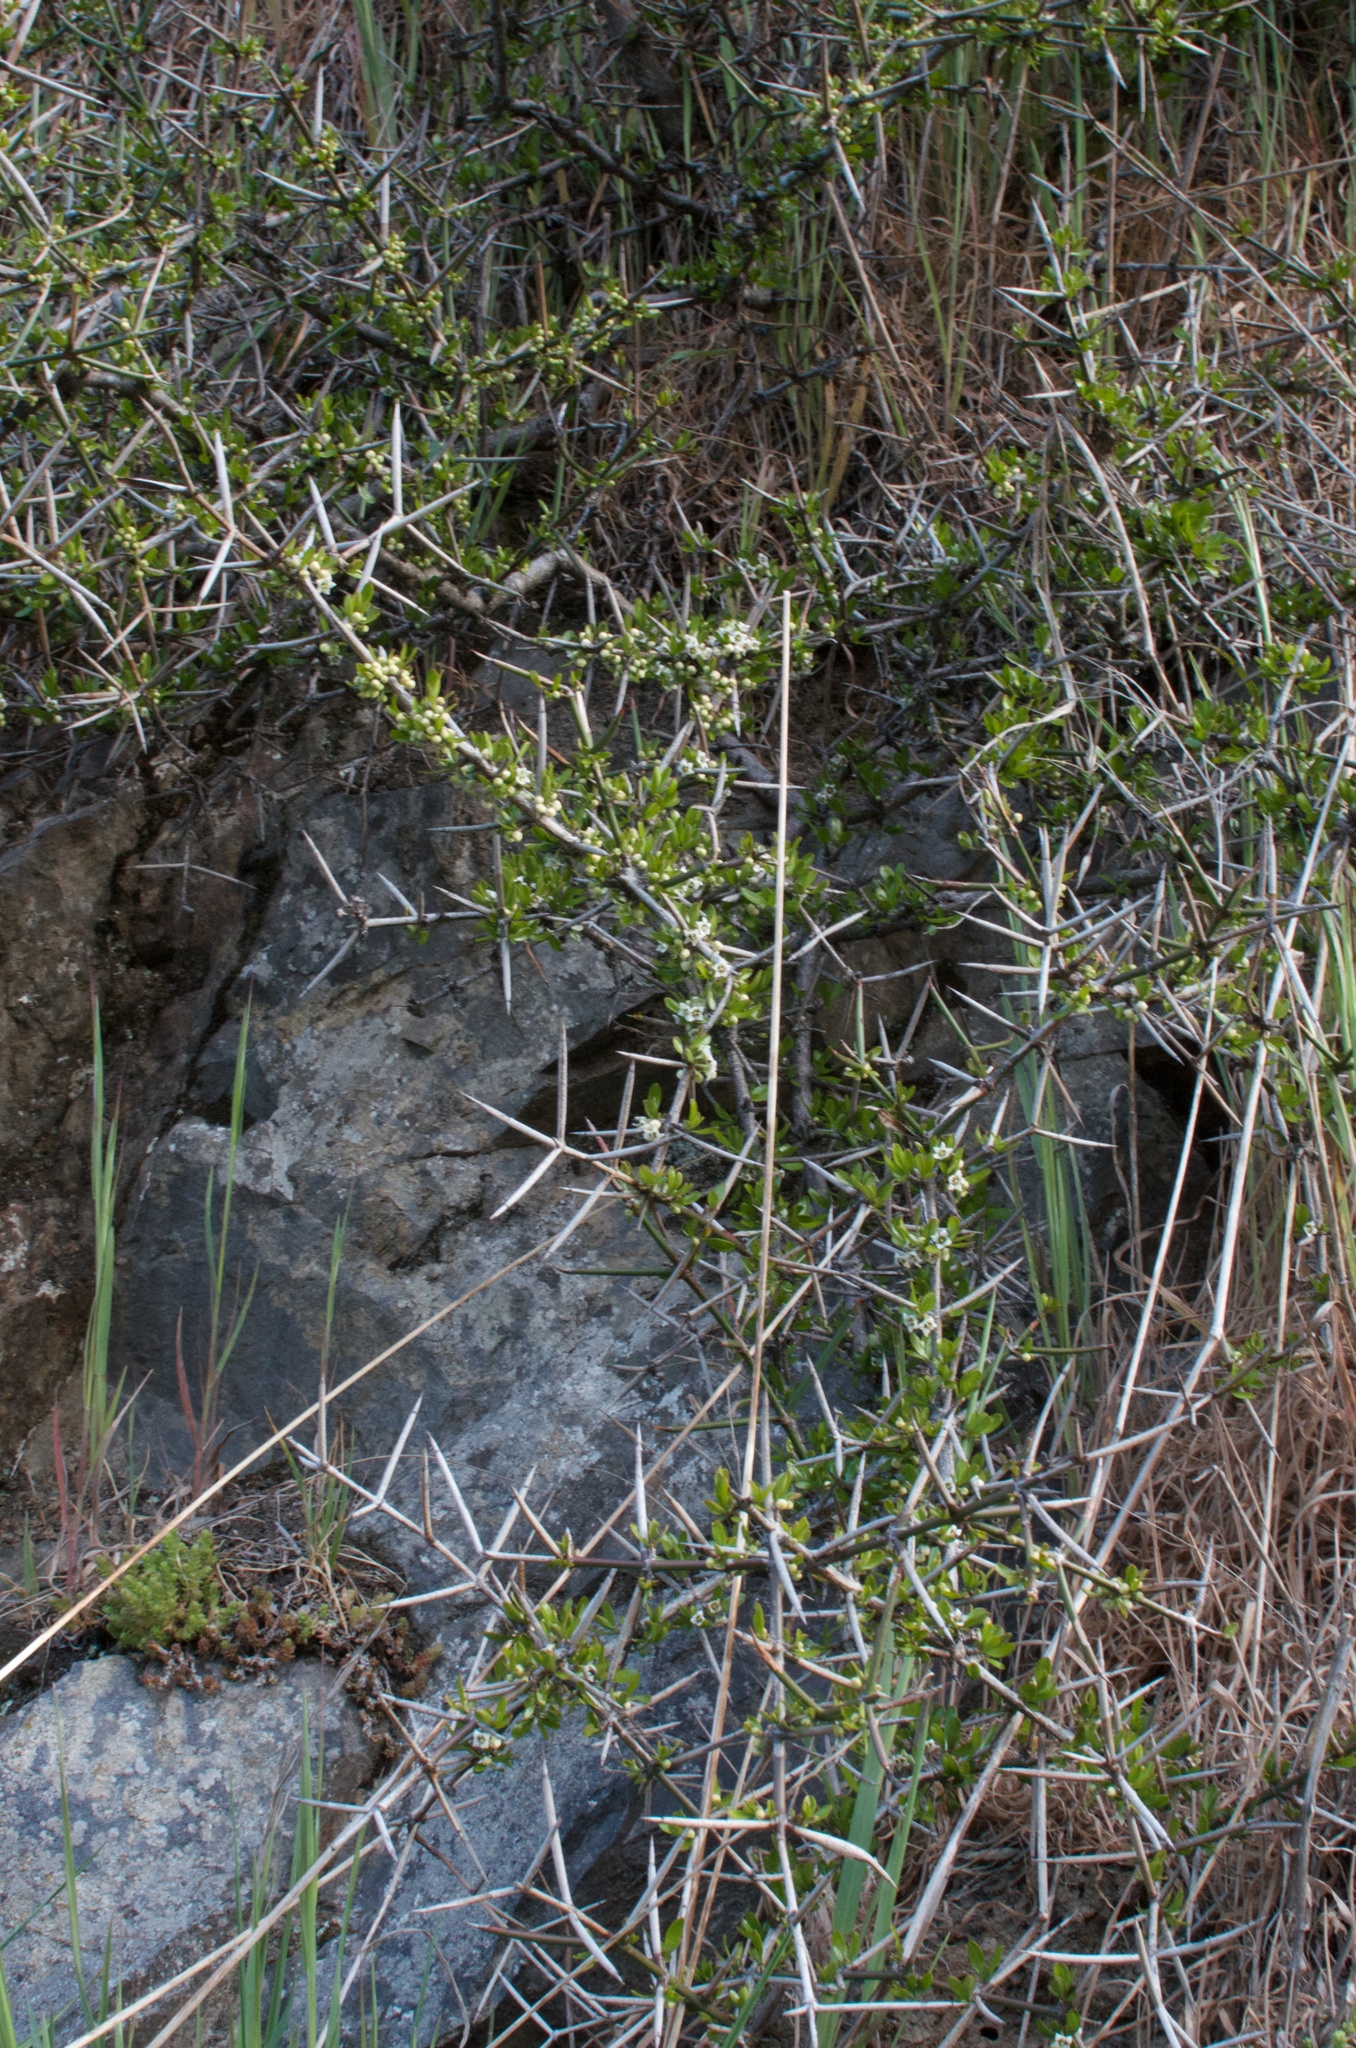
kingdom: Plantae
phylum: Tracheophyta
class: Magnoliopsida
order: Rosales
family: Rhamnaceae
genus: Discaria
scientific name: Discaria toumatou
